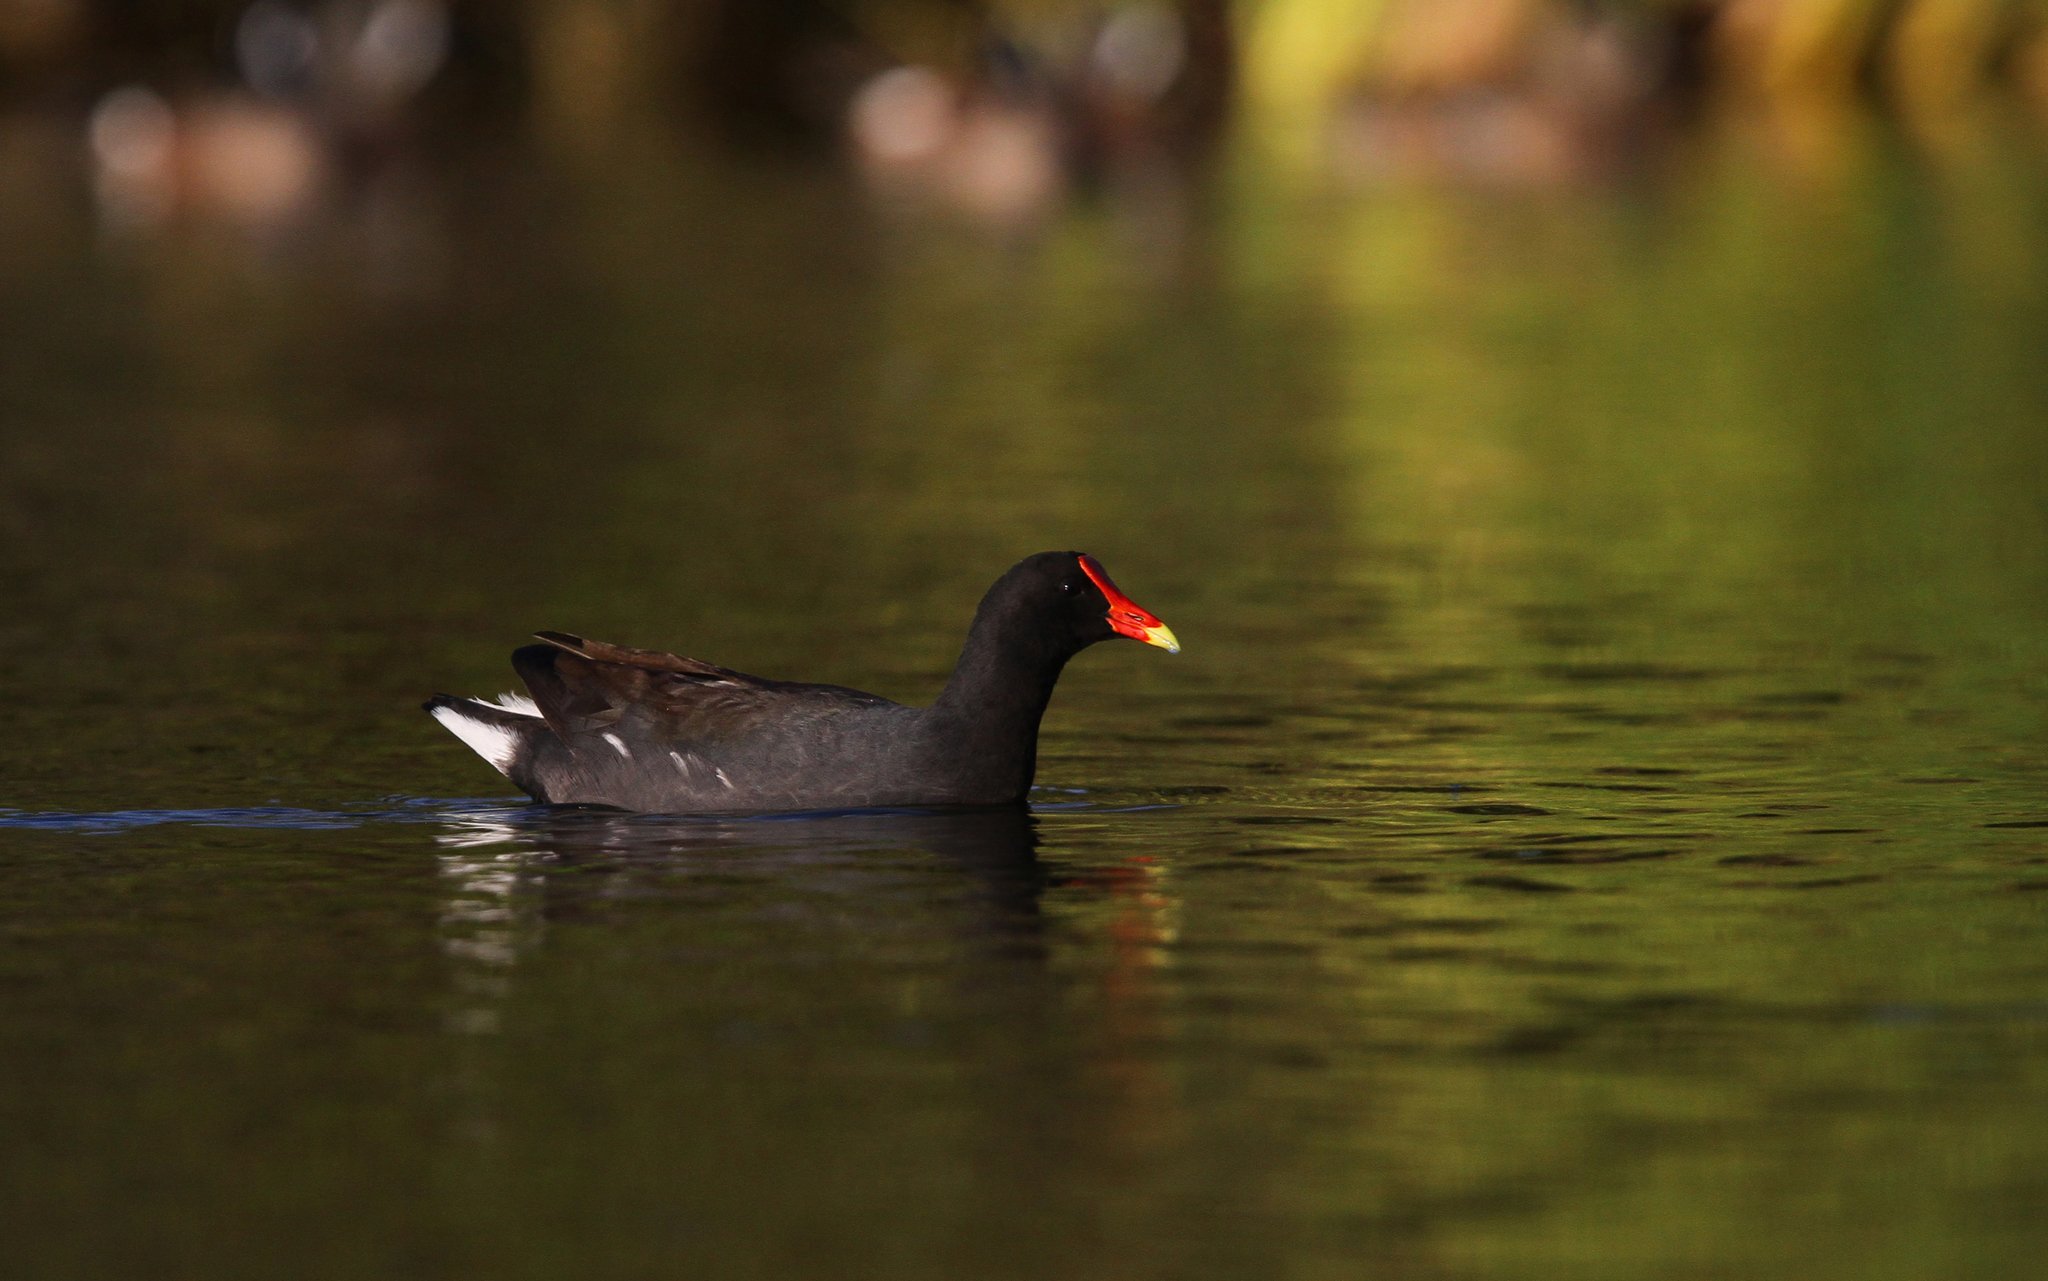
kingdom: Animalia
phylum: Chordata
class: Aves
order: Gruiformes
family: Rallidae
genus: Gallinula
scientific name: Gallinula chloropus
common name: Common moorhen
